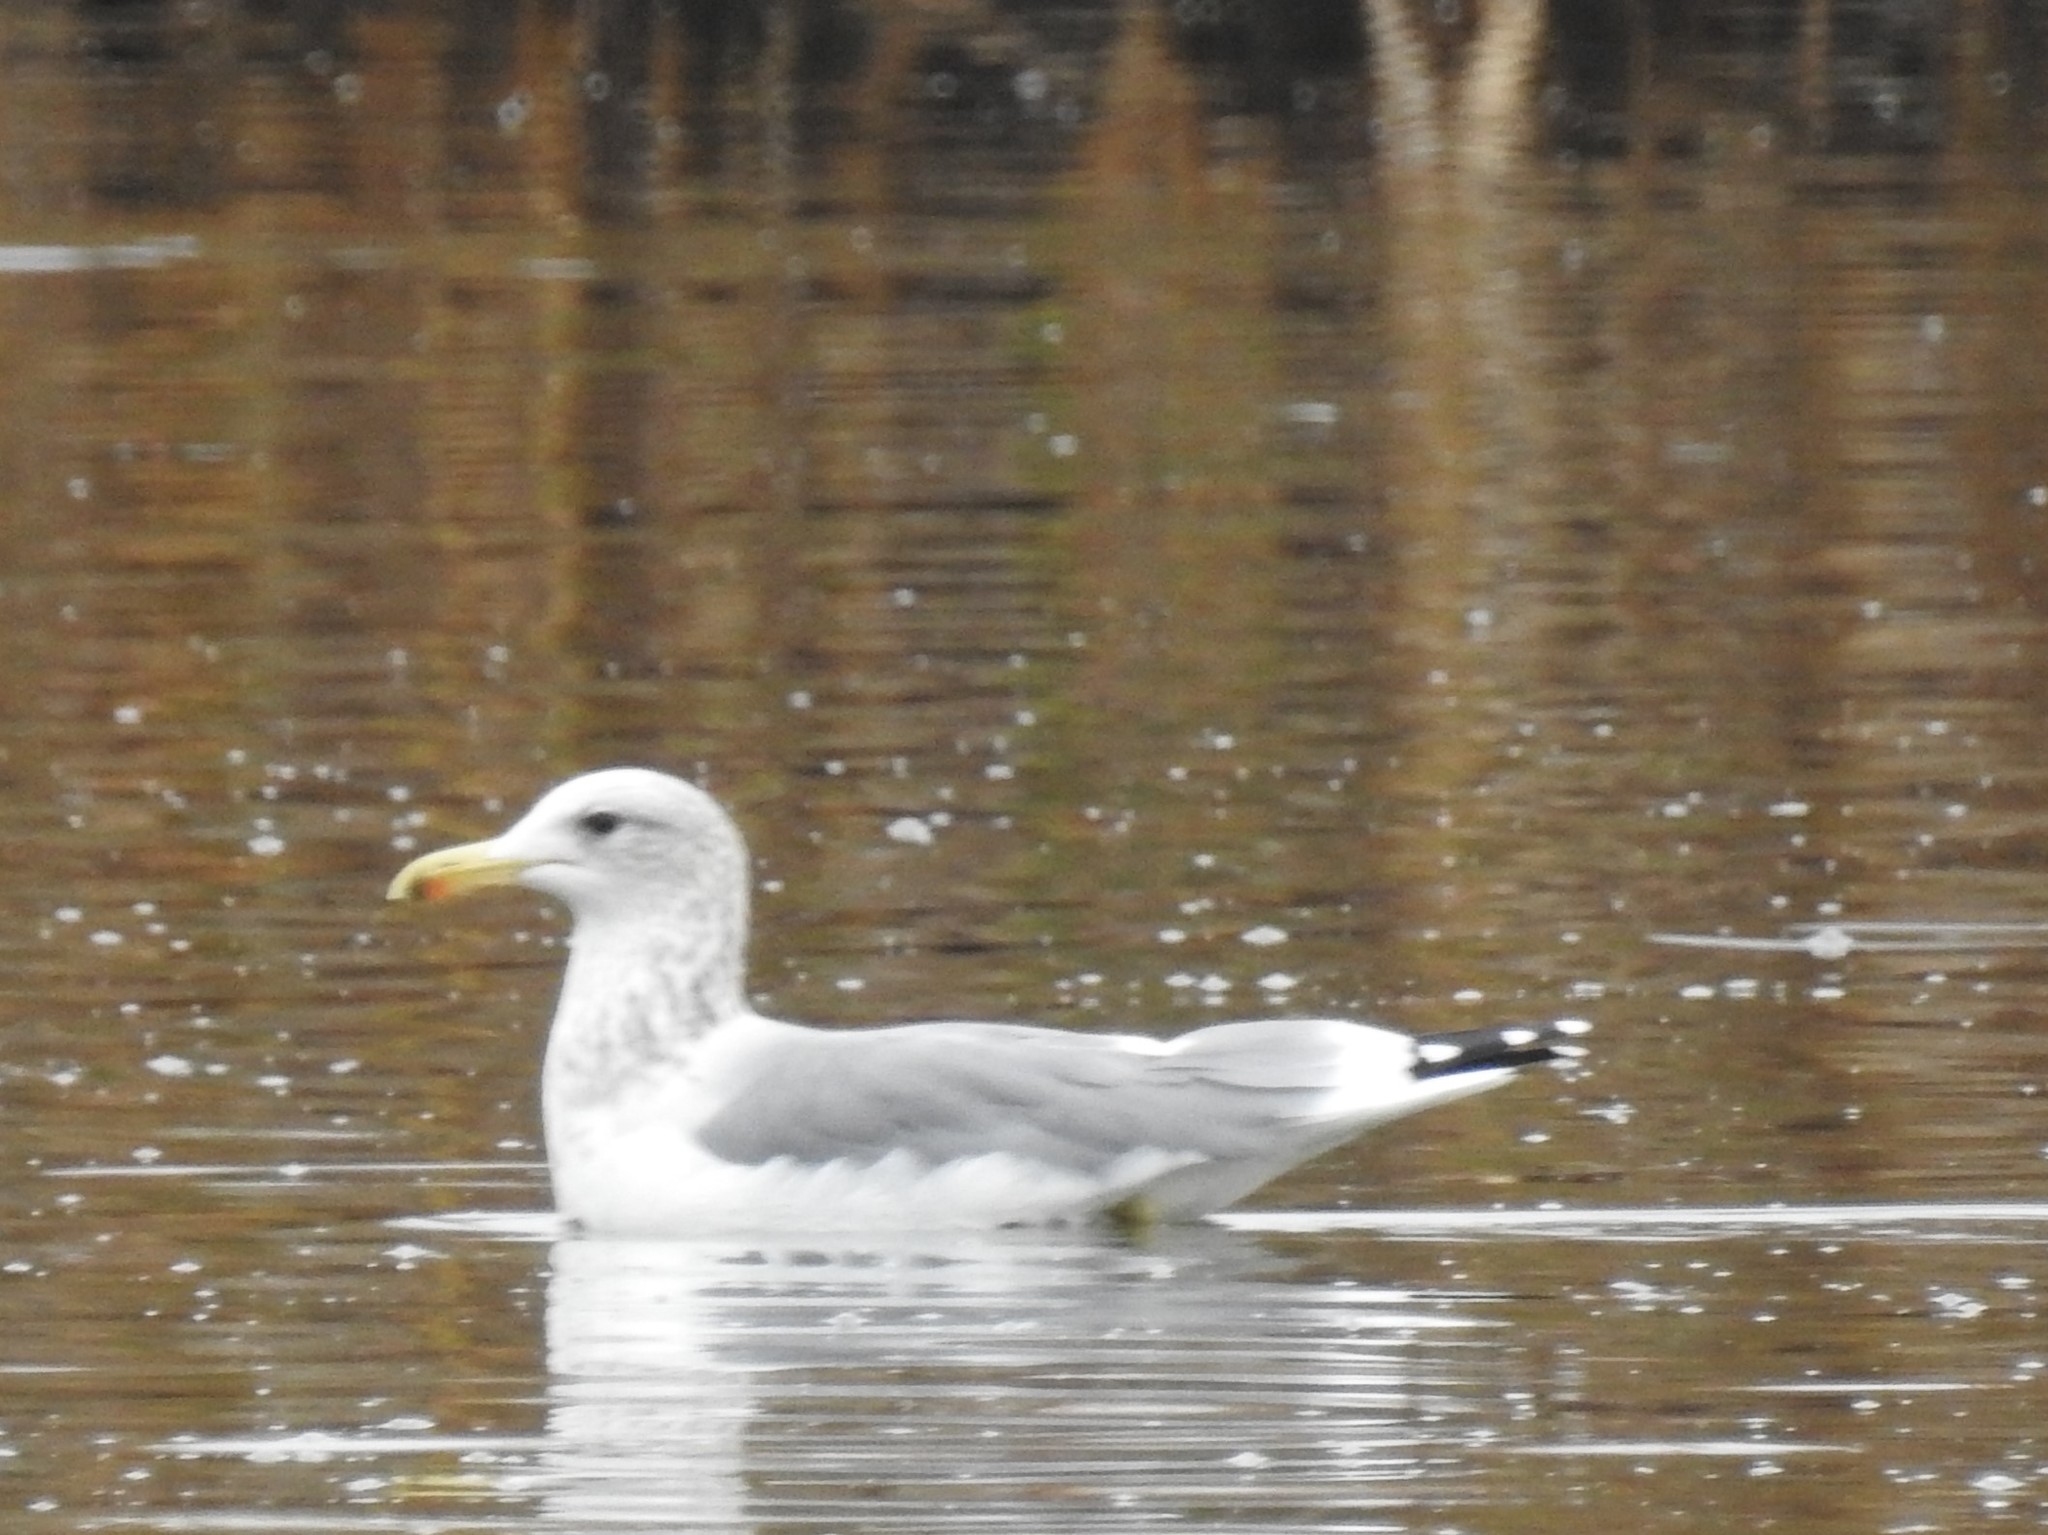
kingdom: Animalia
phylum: Chordata
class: Aves
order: Charadriiformes
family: Laridae
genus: Larus
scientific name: Larus californicus
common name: California gull
